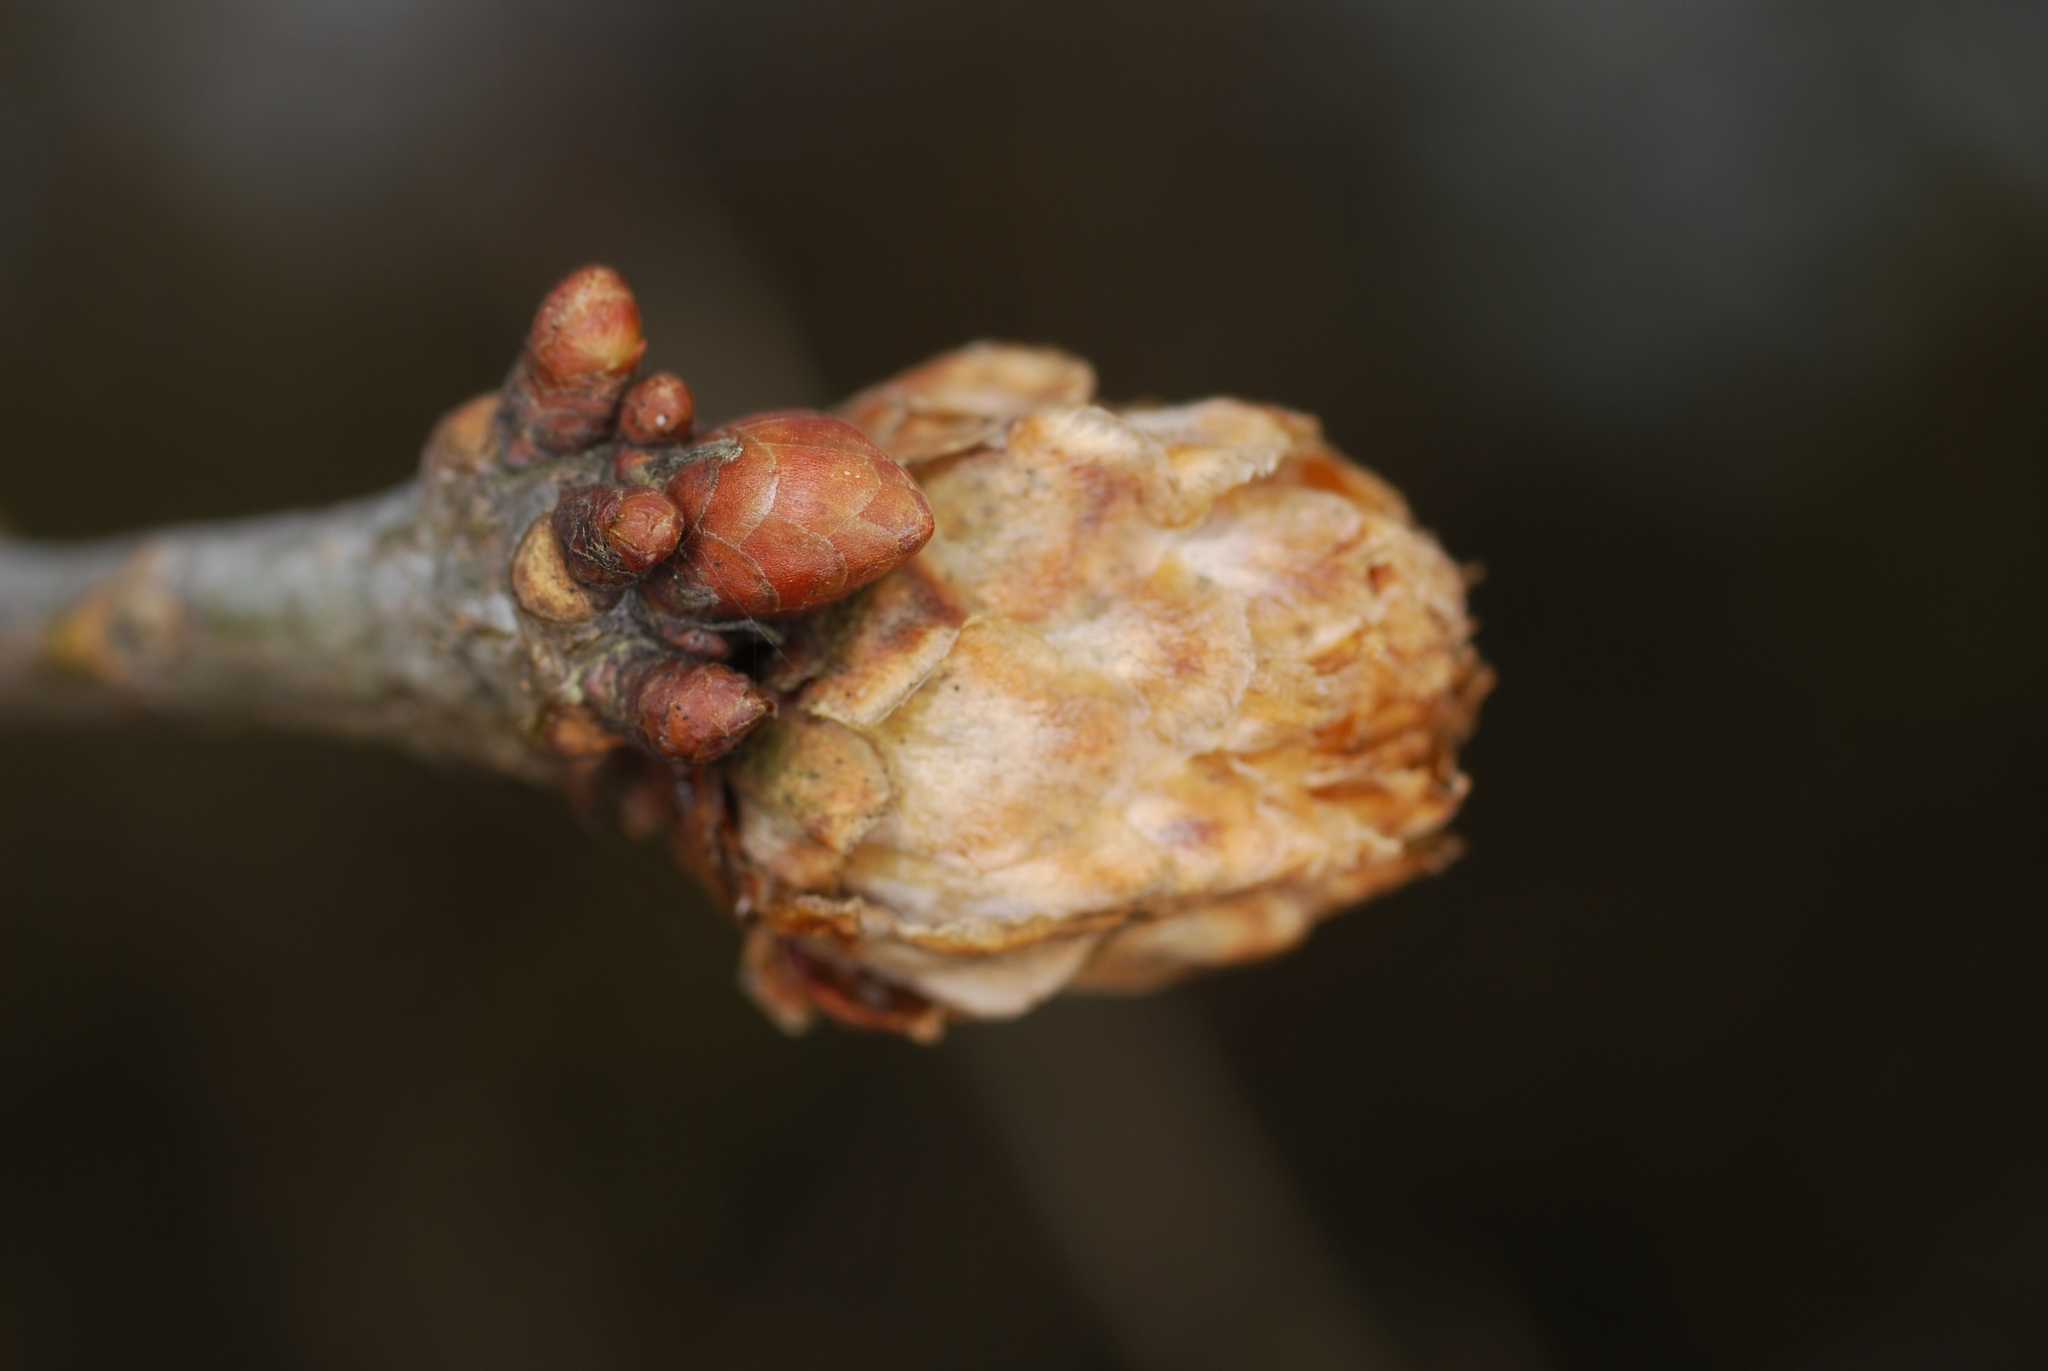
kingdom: Animalia
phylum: Arthropoda
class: Insecta
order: Hymenoptera
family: Cynipidae
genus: Andricus
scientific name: Andricus foecundatrix
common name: Artichoke gall
